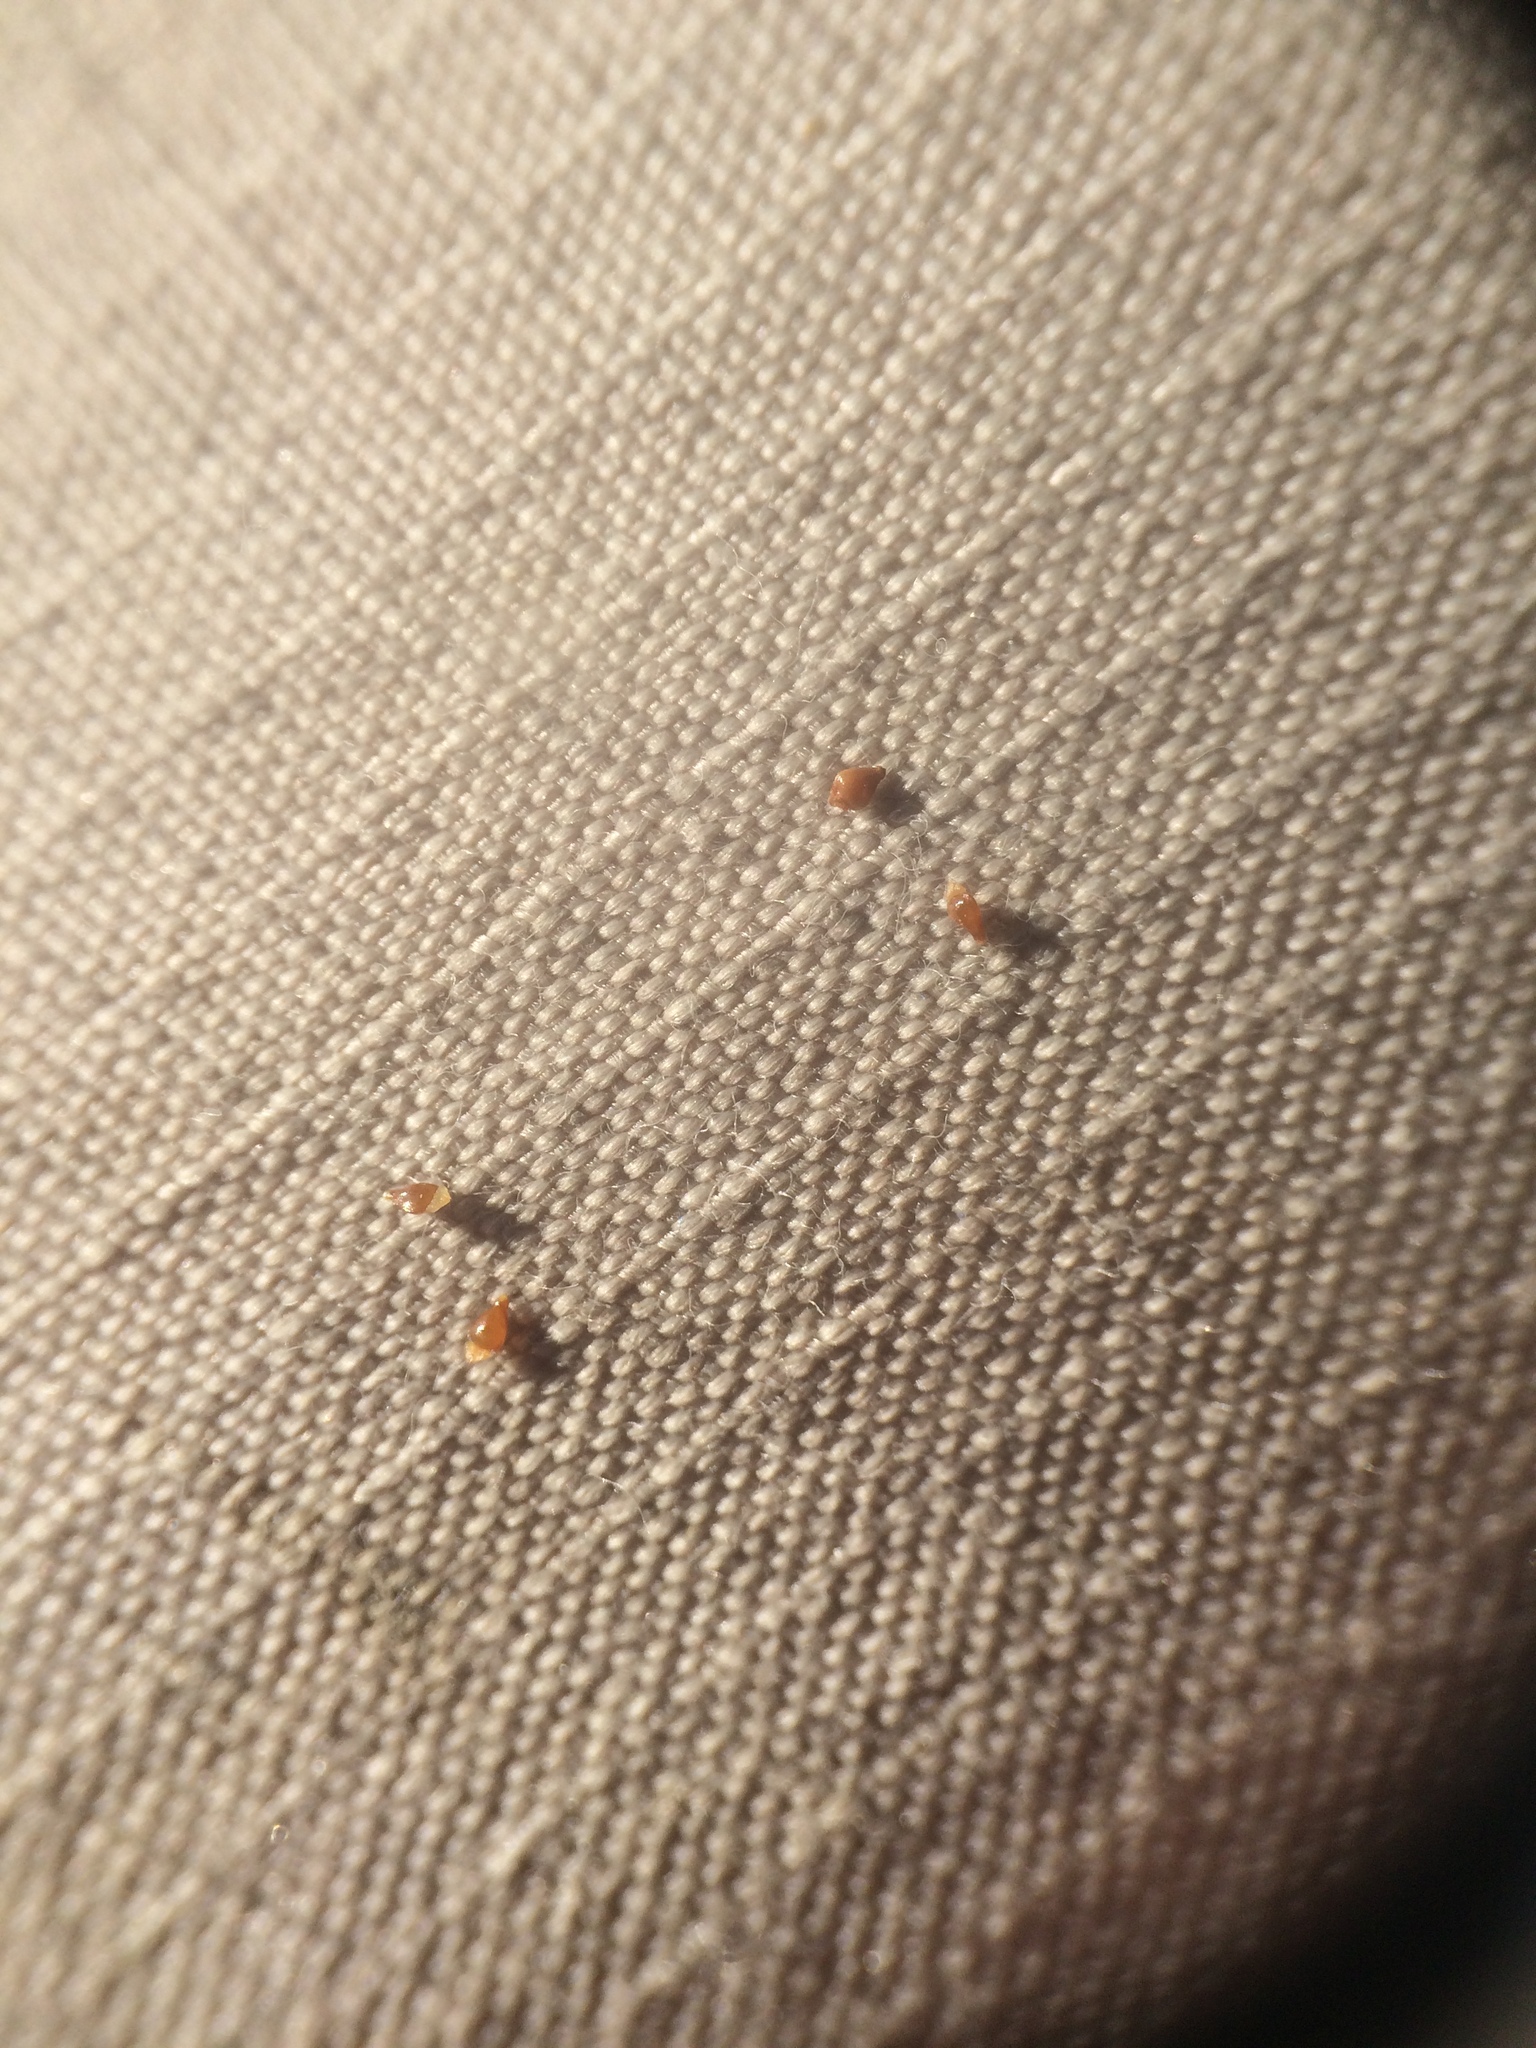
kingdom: Plantae
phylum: Tracheophyta
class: Liliopsida
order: Poales
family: Cyperaceae
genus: Eleocharis
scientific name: Eleocharis diandra
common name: Wright's spikerush
